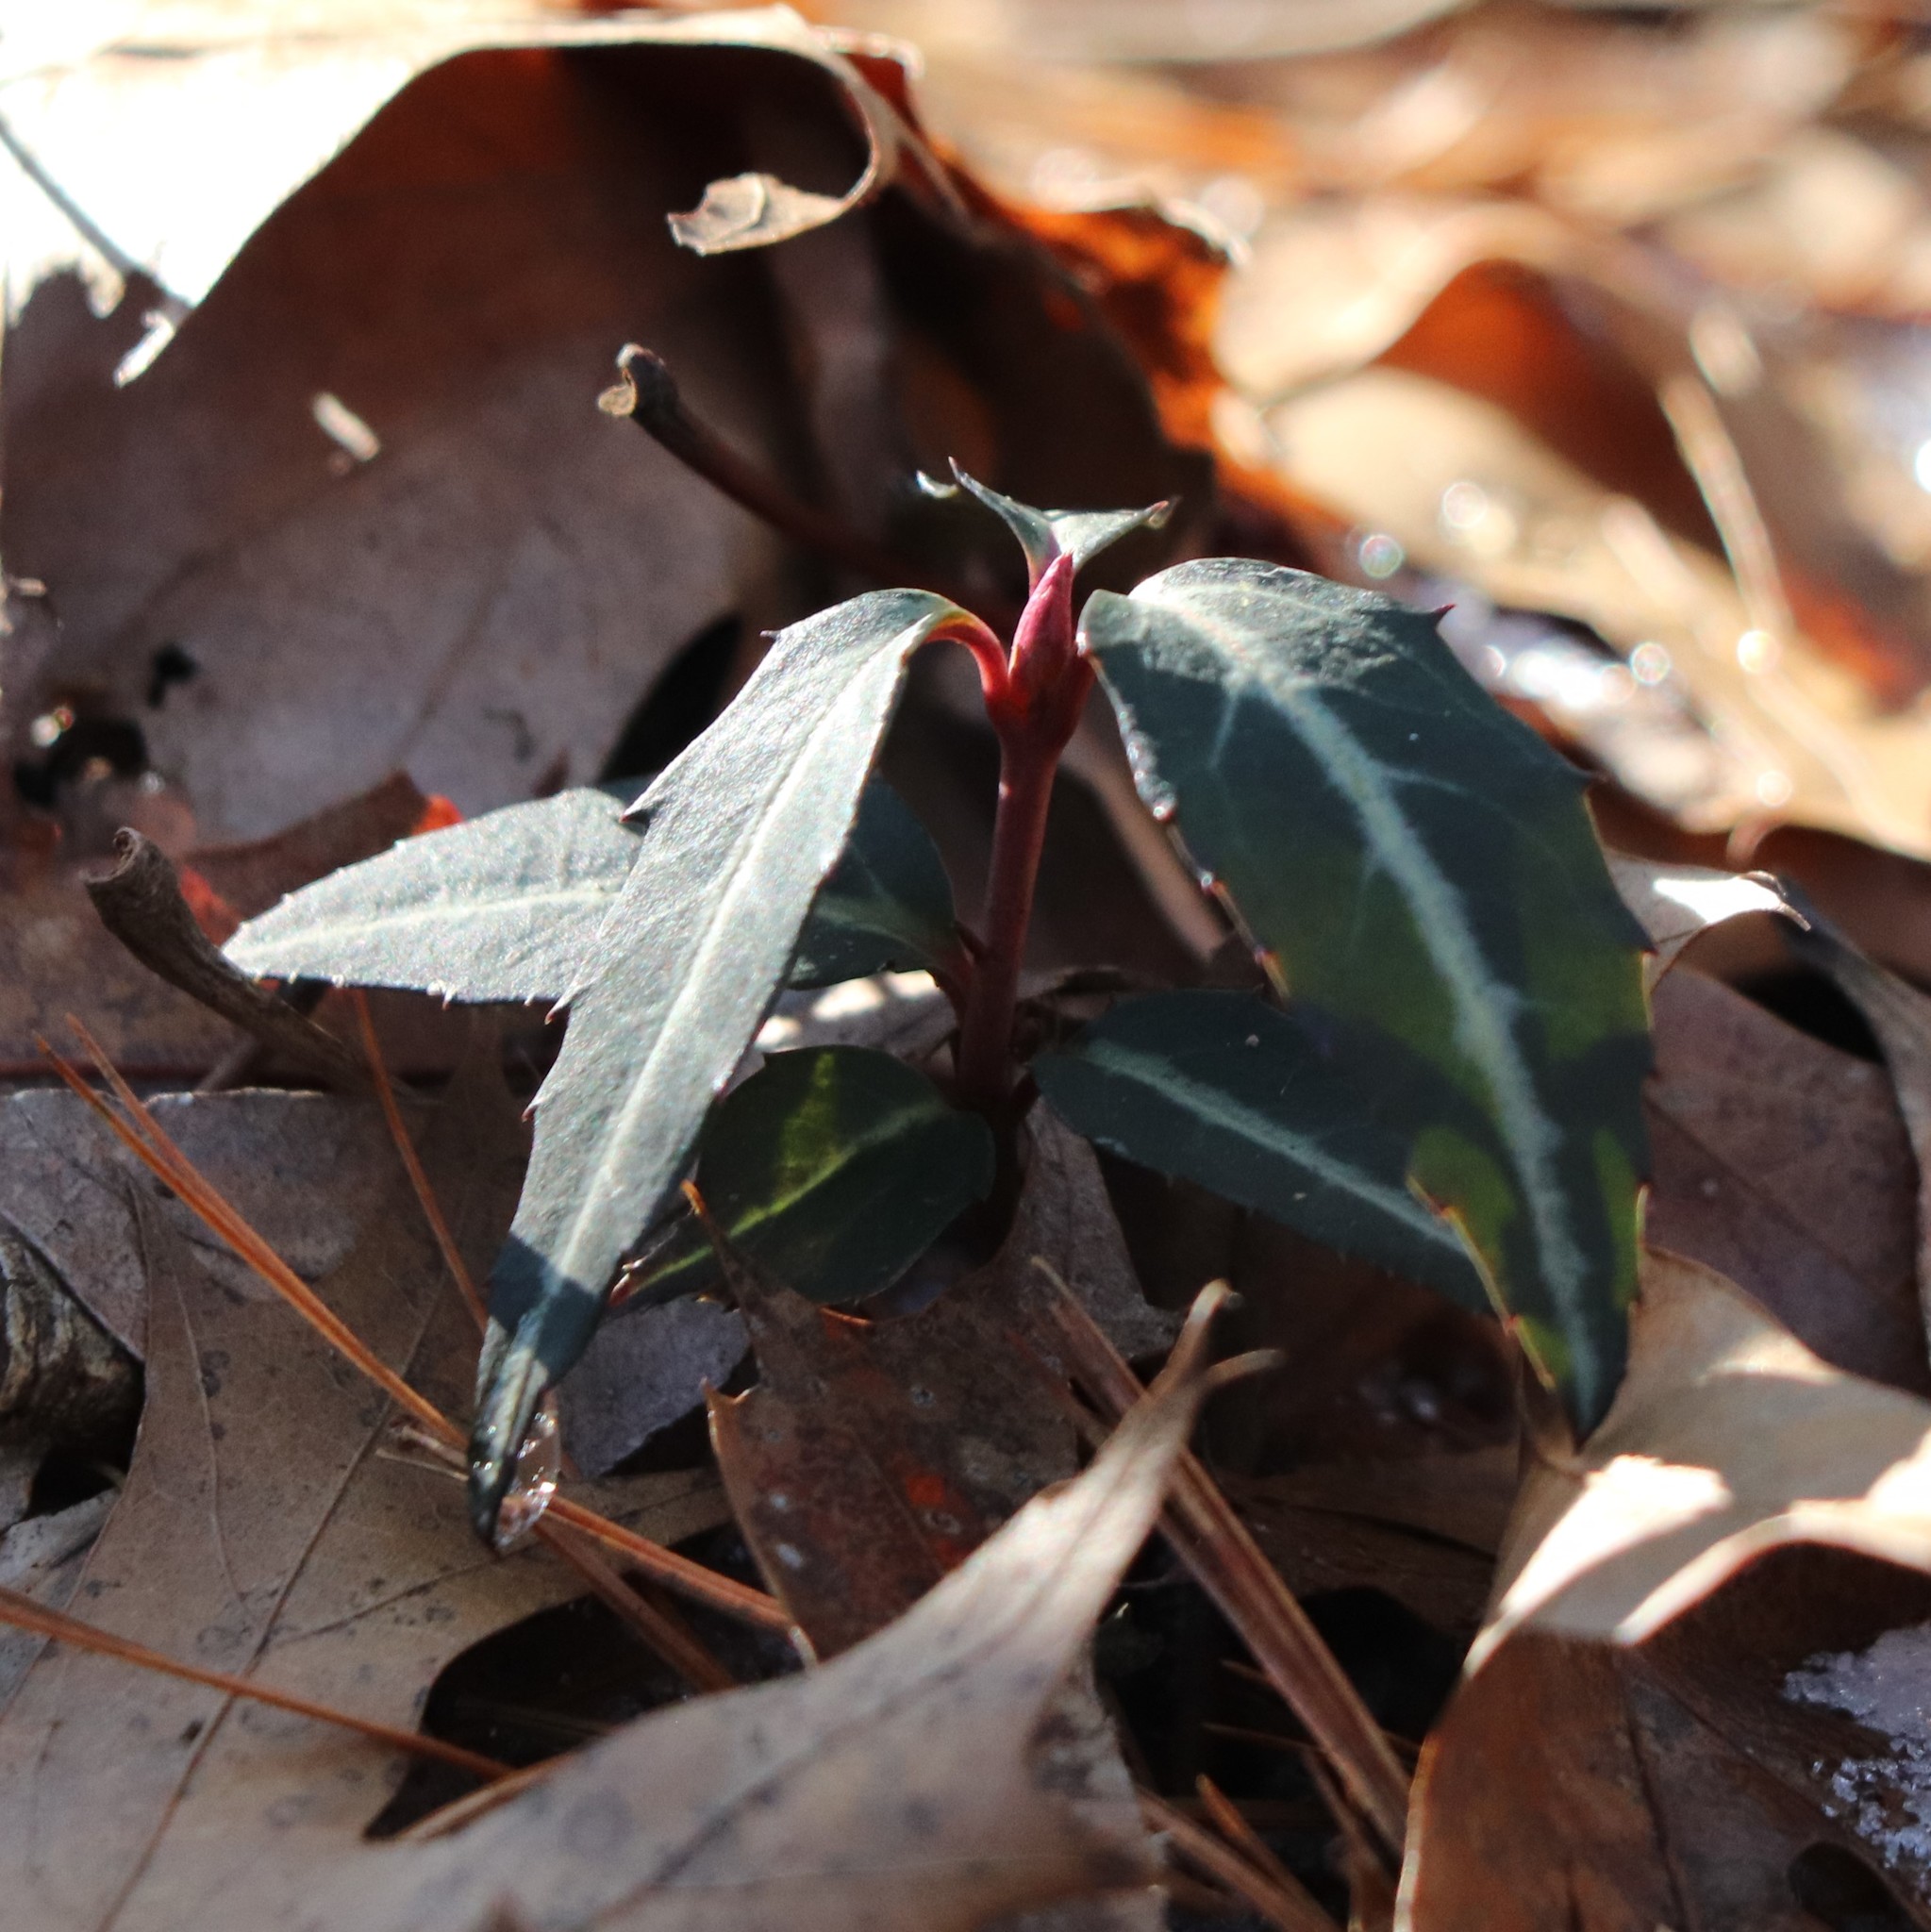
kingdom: Plantae
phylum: Tracheophyta
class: Magnoliopsida
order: Ericales
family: Ericaceae
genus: Chimaphila
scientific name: Chimaphila maculata
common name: Spotted pipsissewa
